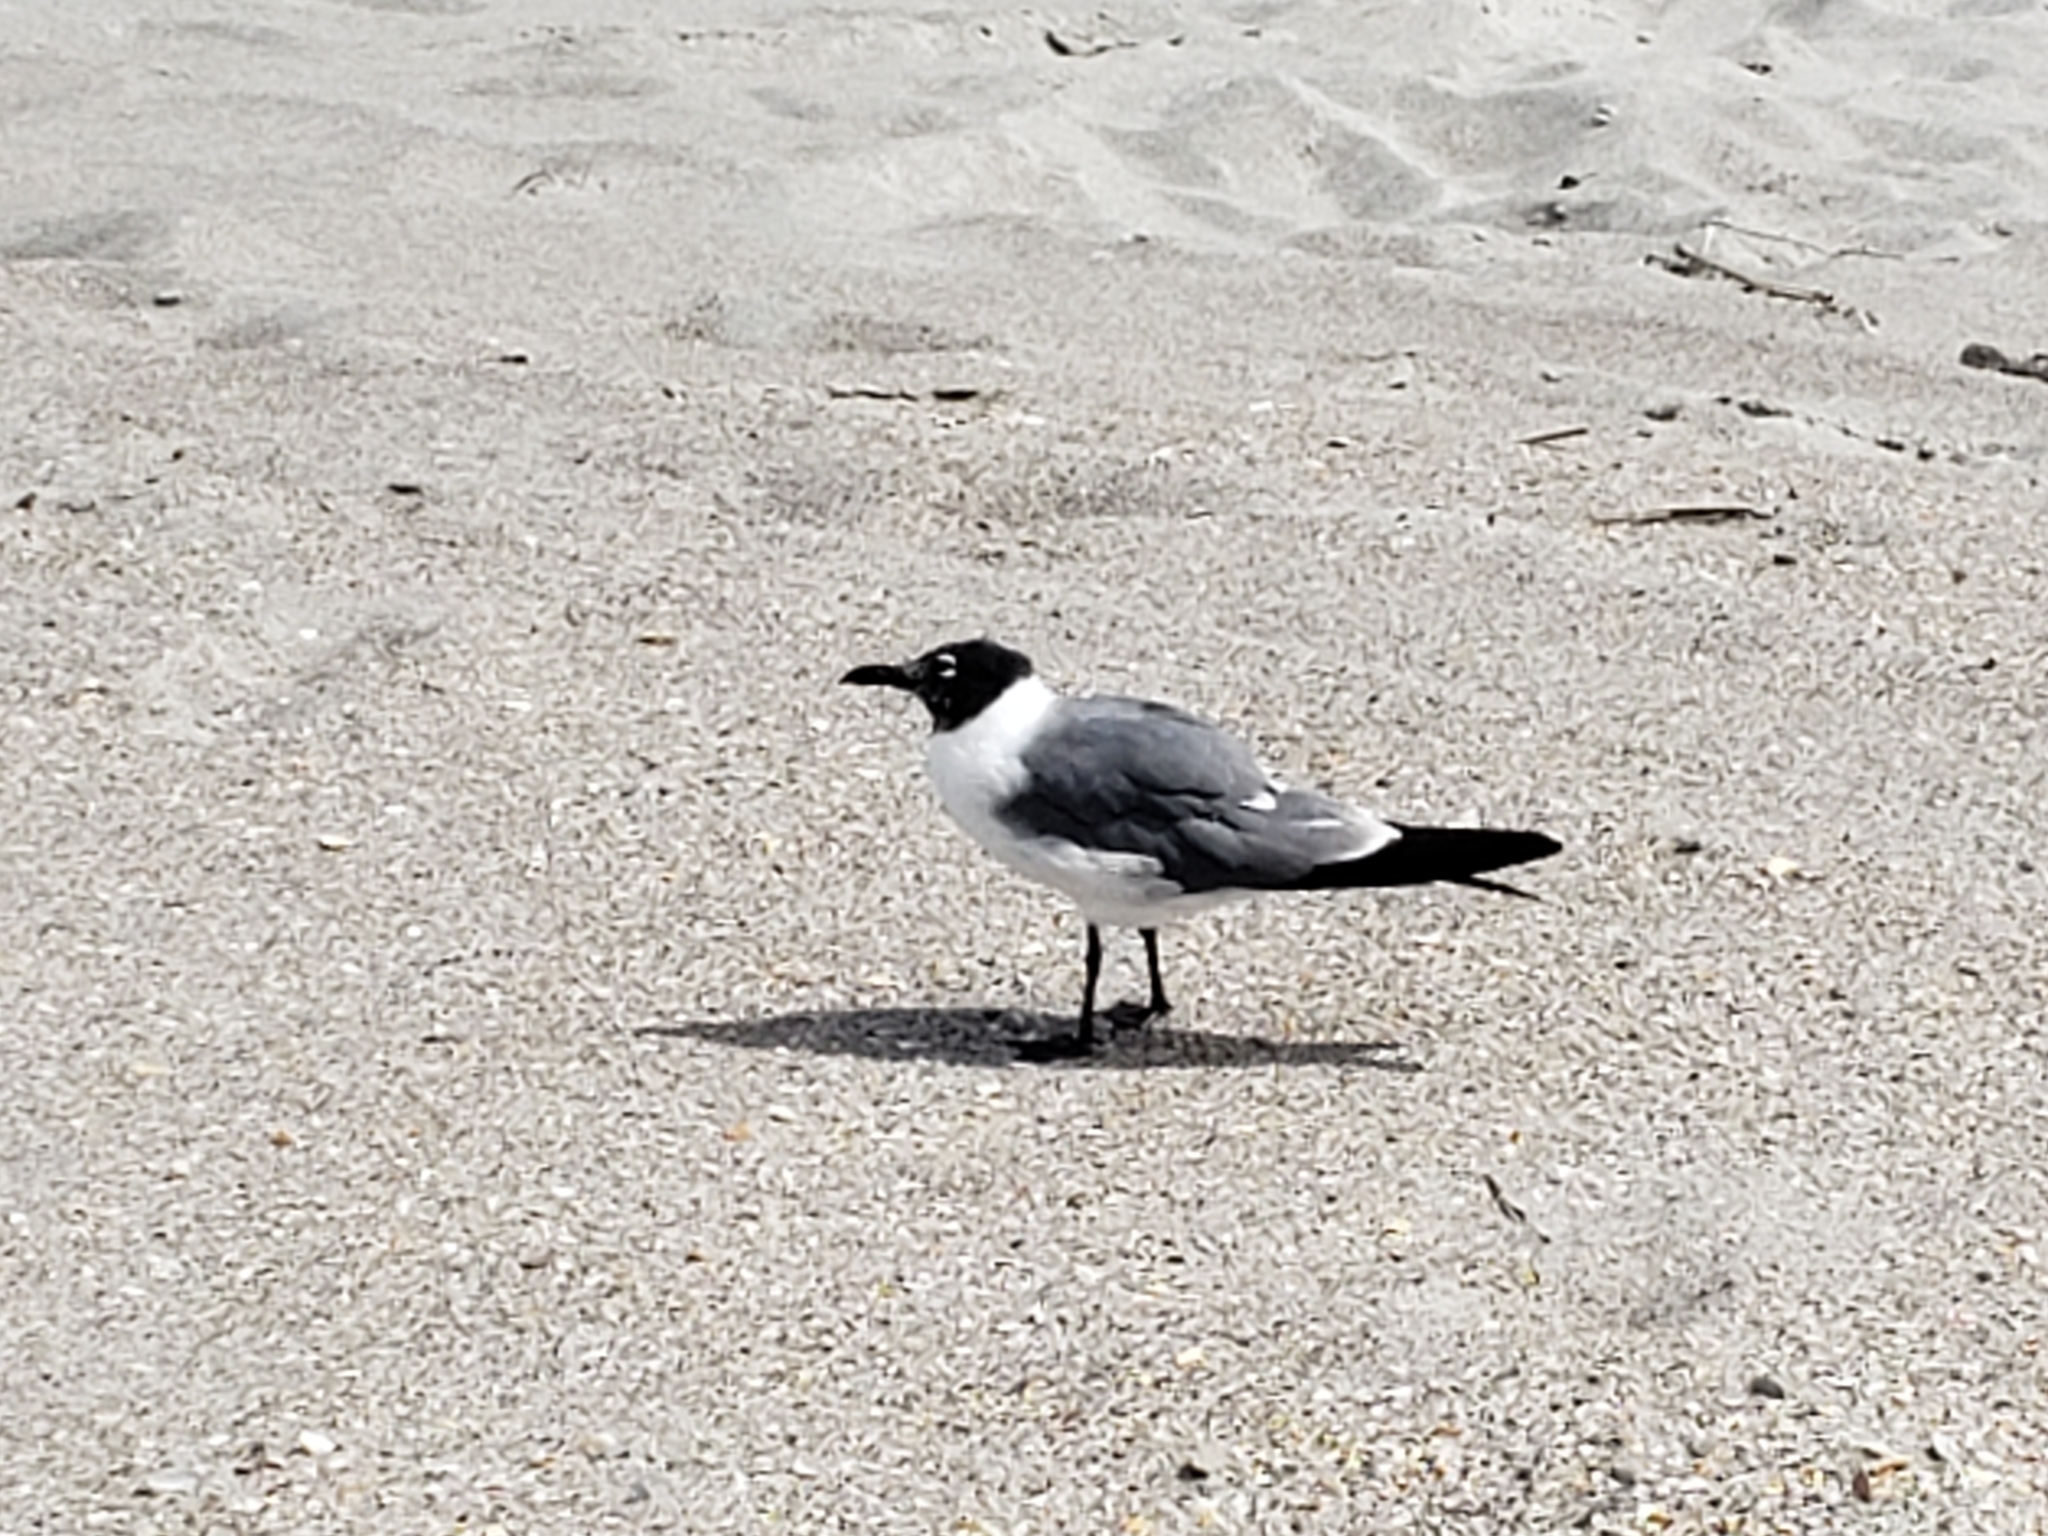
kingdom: Animalia
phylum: Chordata
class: Aves
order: Charadriiformes
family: Laridae
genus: Leucophaeus
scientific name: Leucophaeus atricilla
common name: Laughing gull
